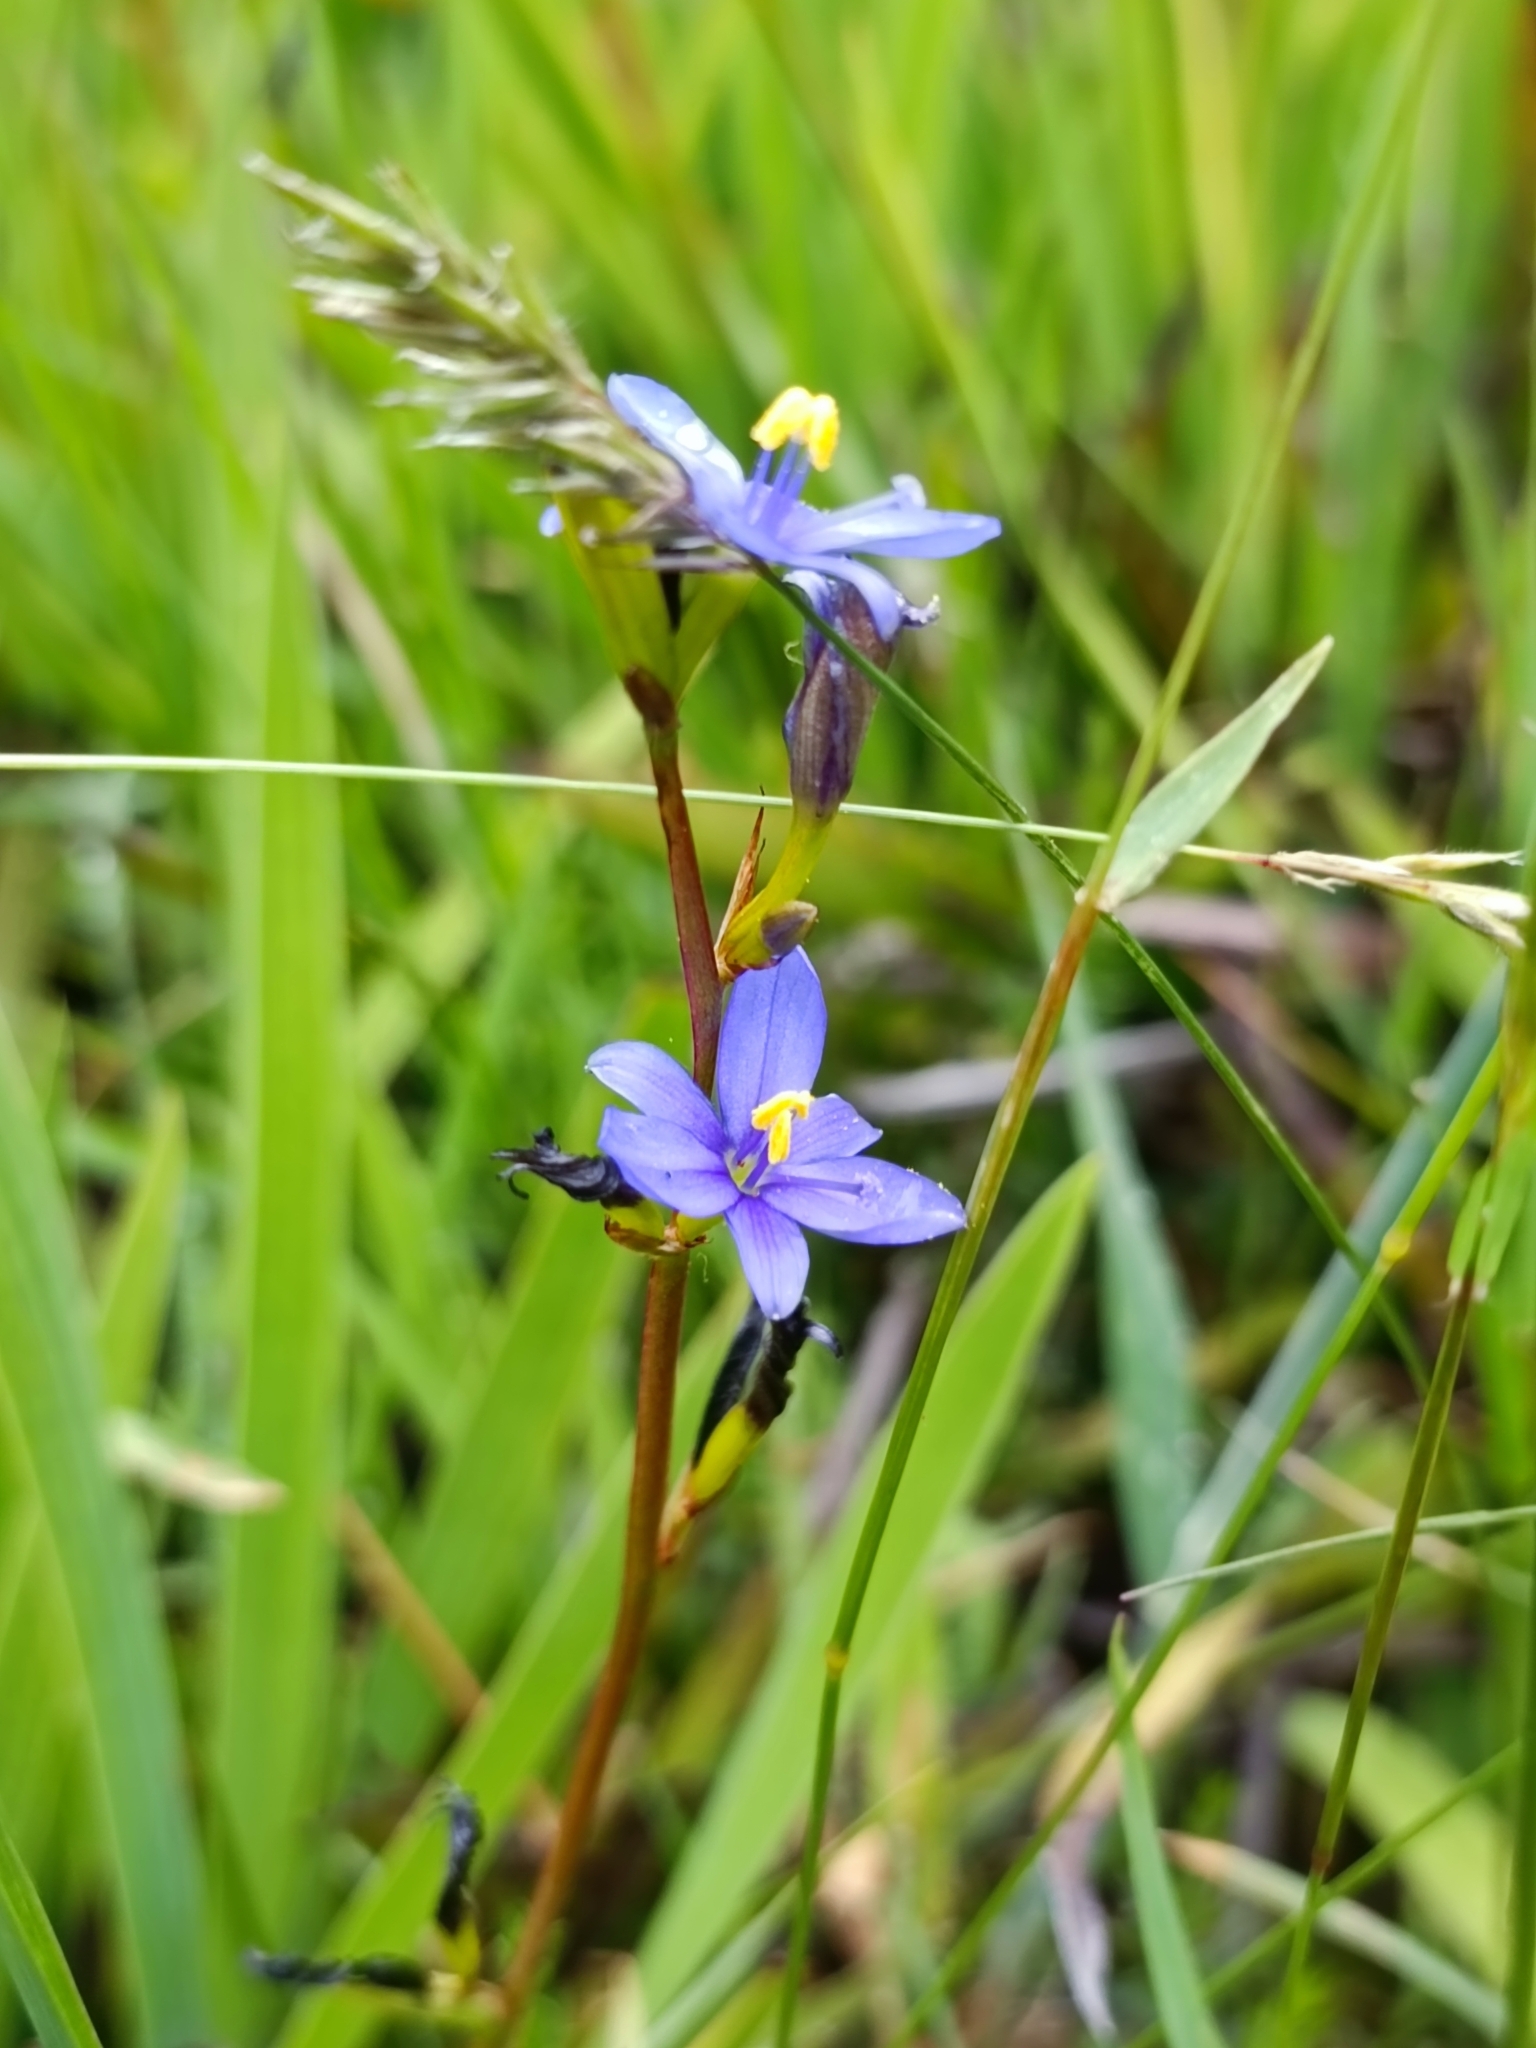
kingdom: Plantae
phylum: Tracheophyta
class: Liliopsida
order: Asparagales
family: Iridaceae
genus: Aristea
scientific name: Aristea ecklonii
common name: Blue corn-lily
